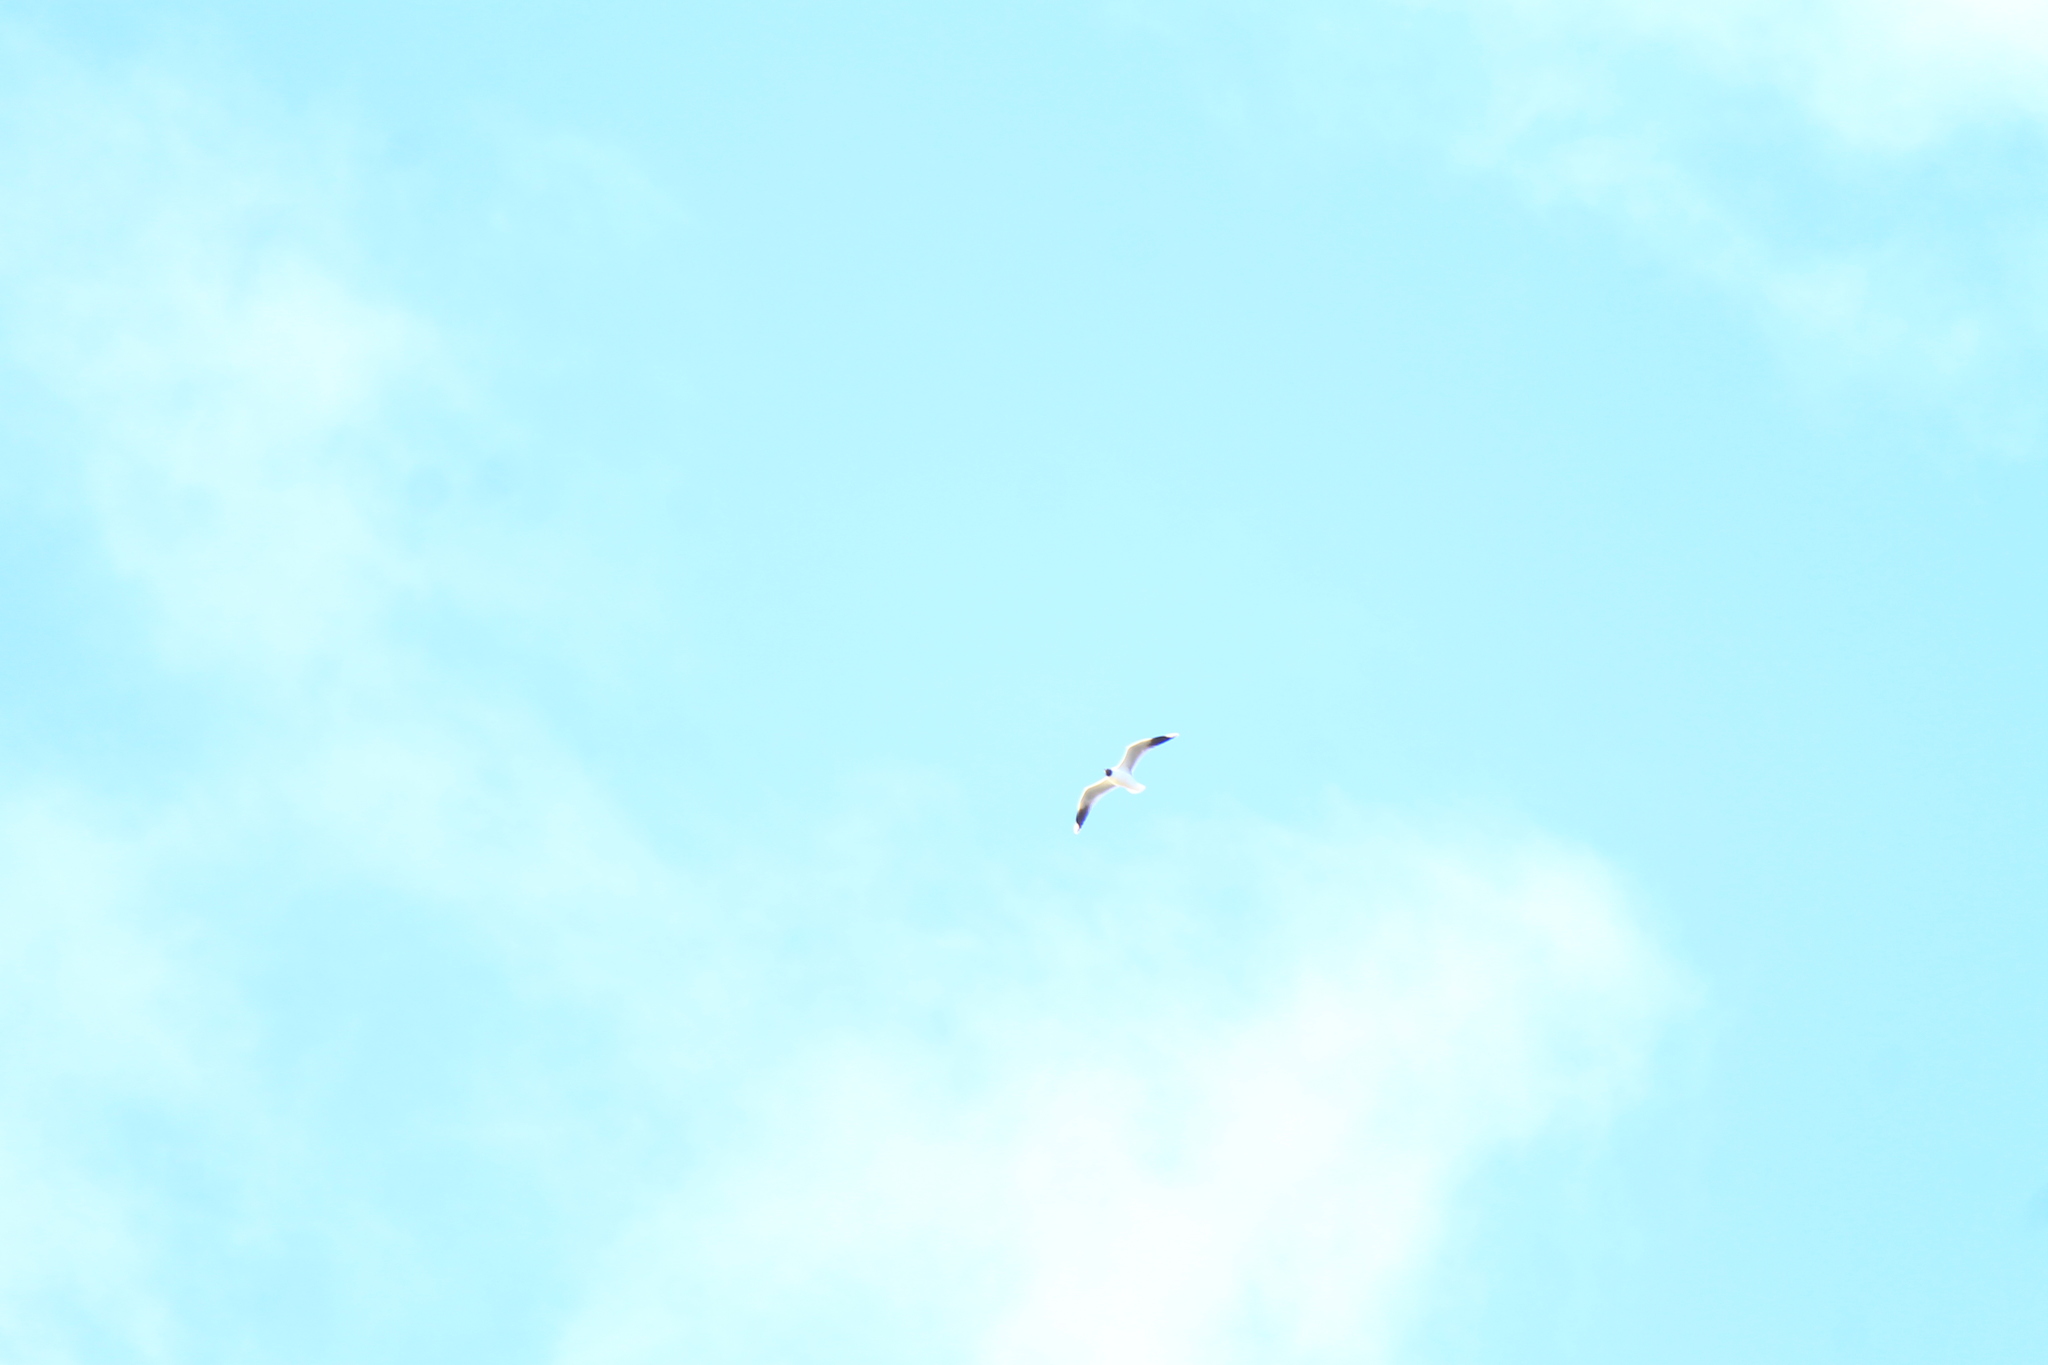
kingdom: Animalia
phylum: Chordata
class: Aves
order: Charadriiformes
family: Laridae
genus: Chroicocephalus
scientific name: Chroicocephalus maculipennis
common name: Brown-hooded gull
